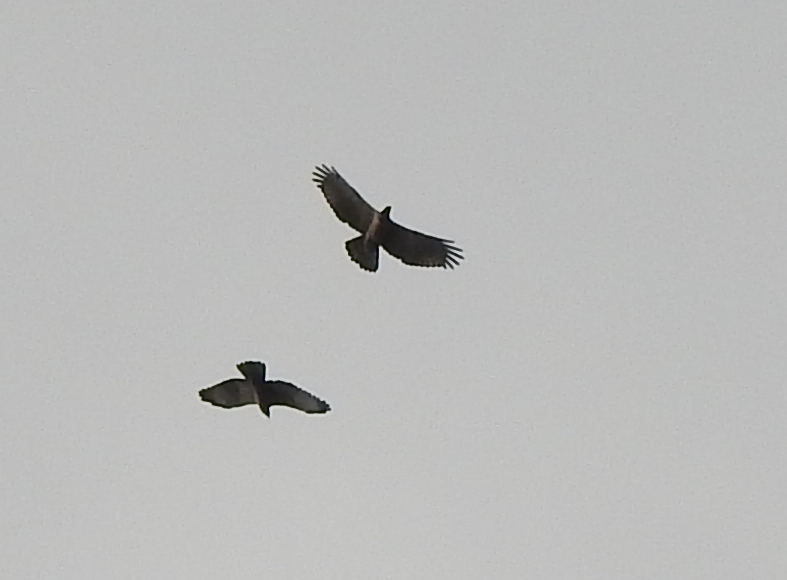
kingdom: Animalia
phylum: Chordata
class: Aves
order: Accipitriformes
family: Accipitridae
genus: Pernis
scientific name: Pernis ptilorhynchus
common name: Crested honey buzzard
